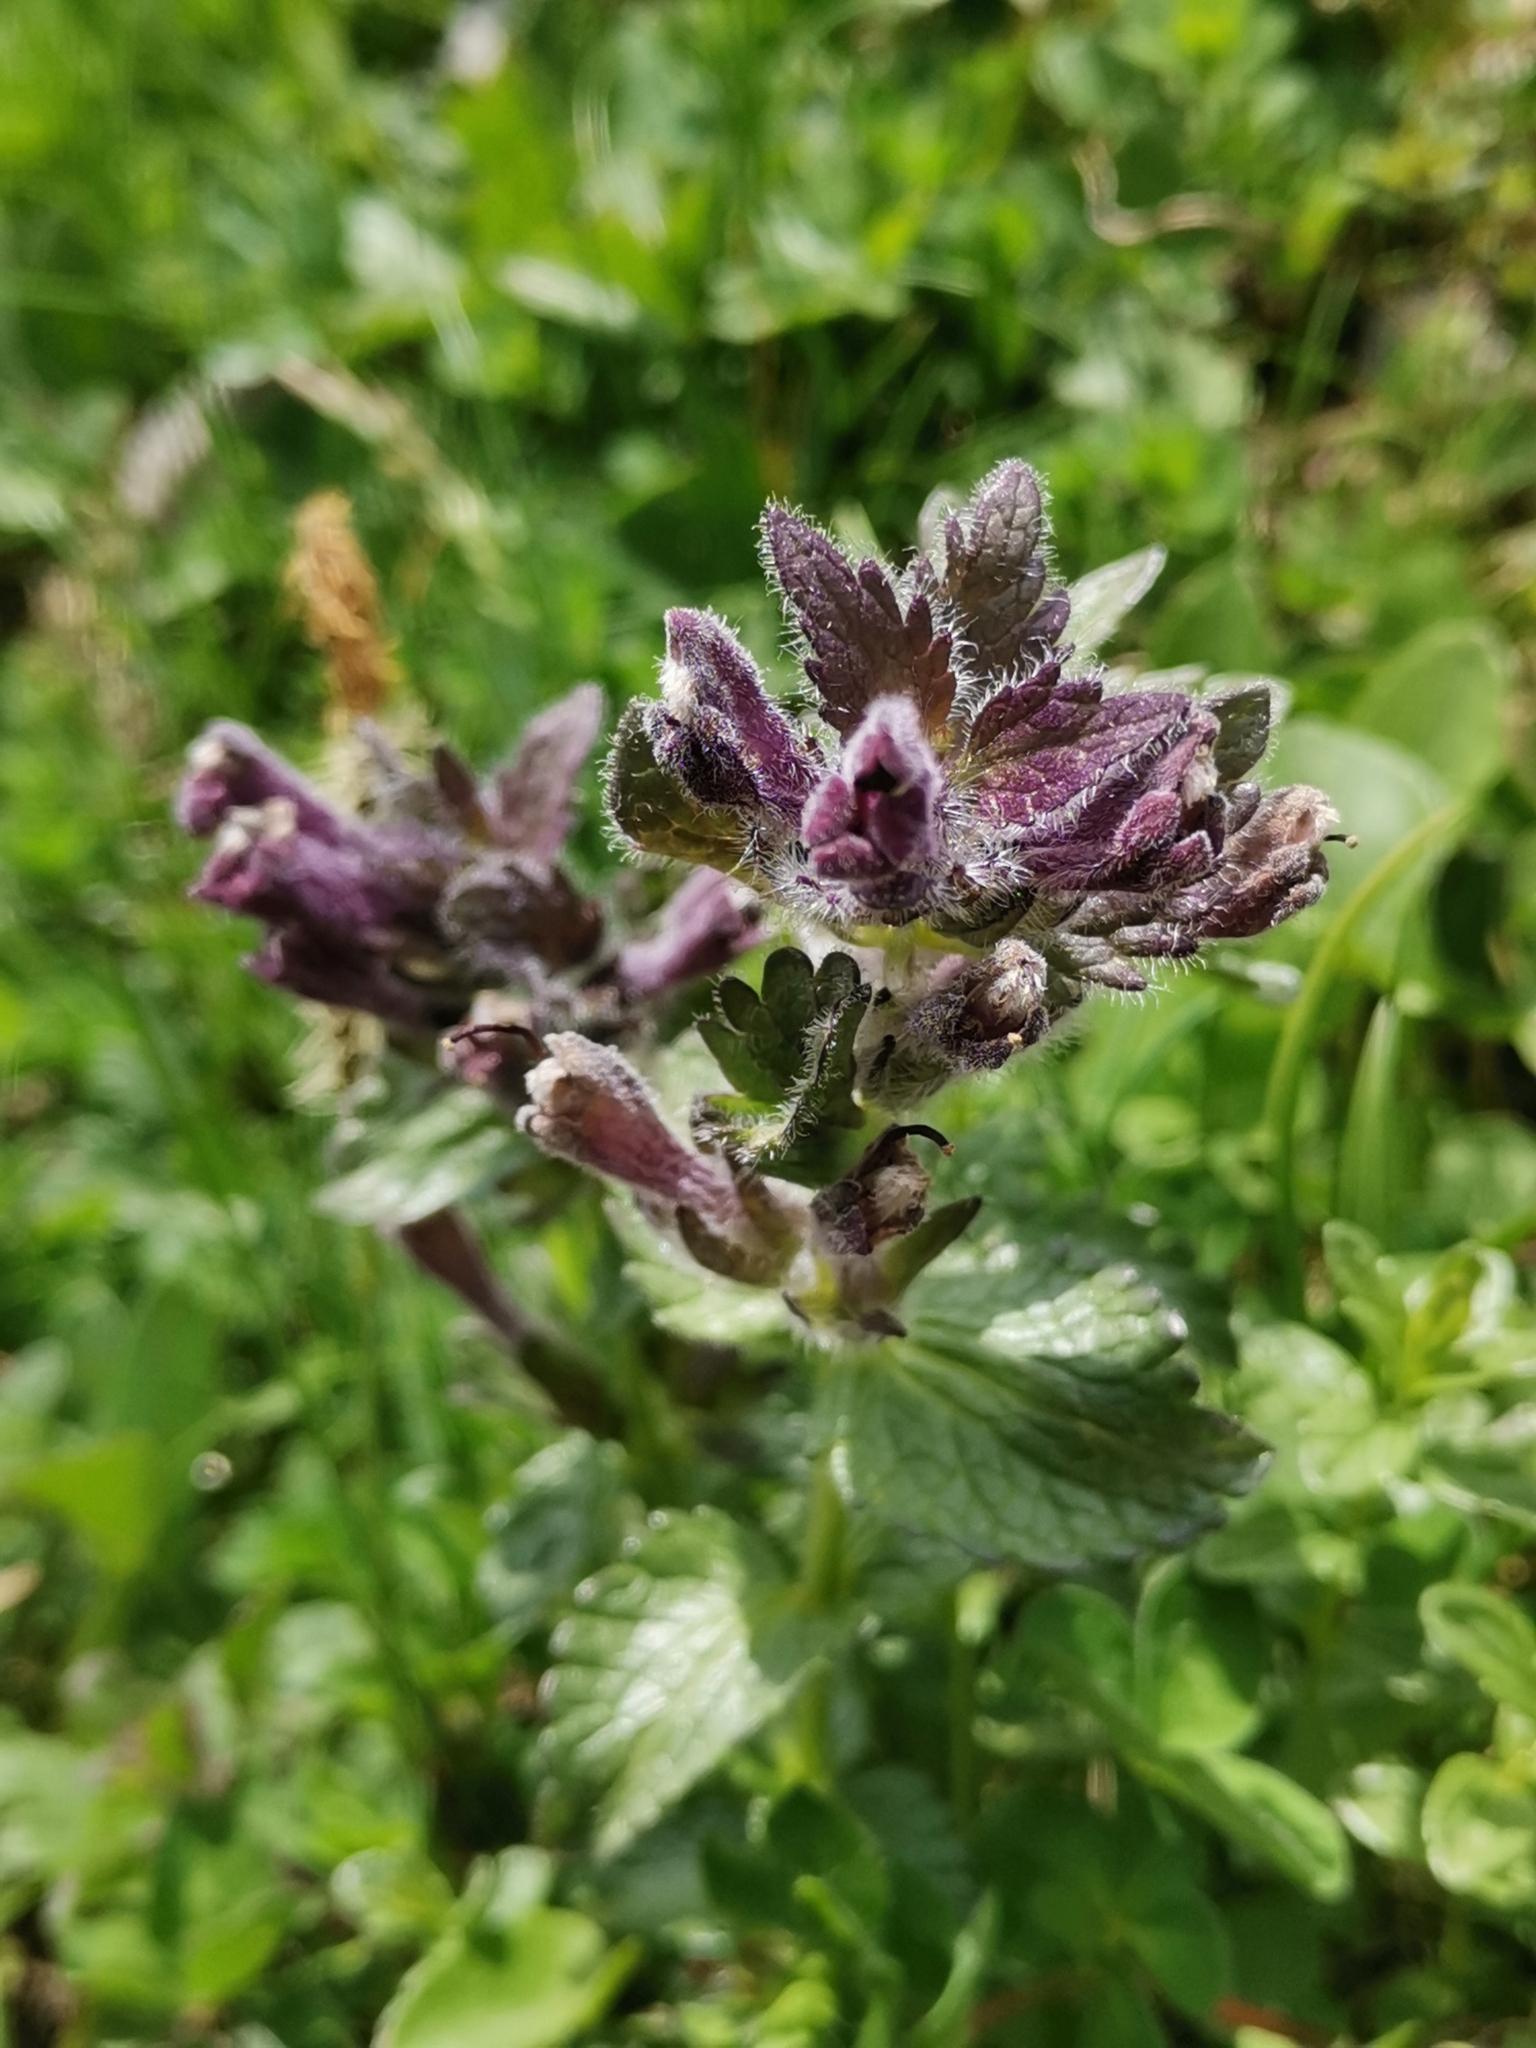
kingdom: Plantae
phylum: Tracheophyta
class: Magnoliopsida
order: Lamiales
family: Orobanchaceae
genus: Bartsia
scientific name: Bartsia alpina
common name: Alpine bartsia
